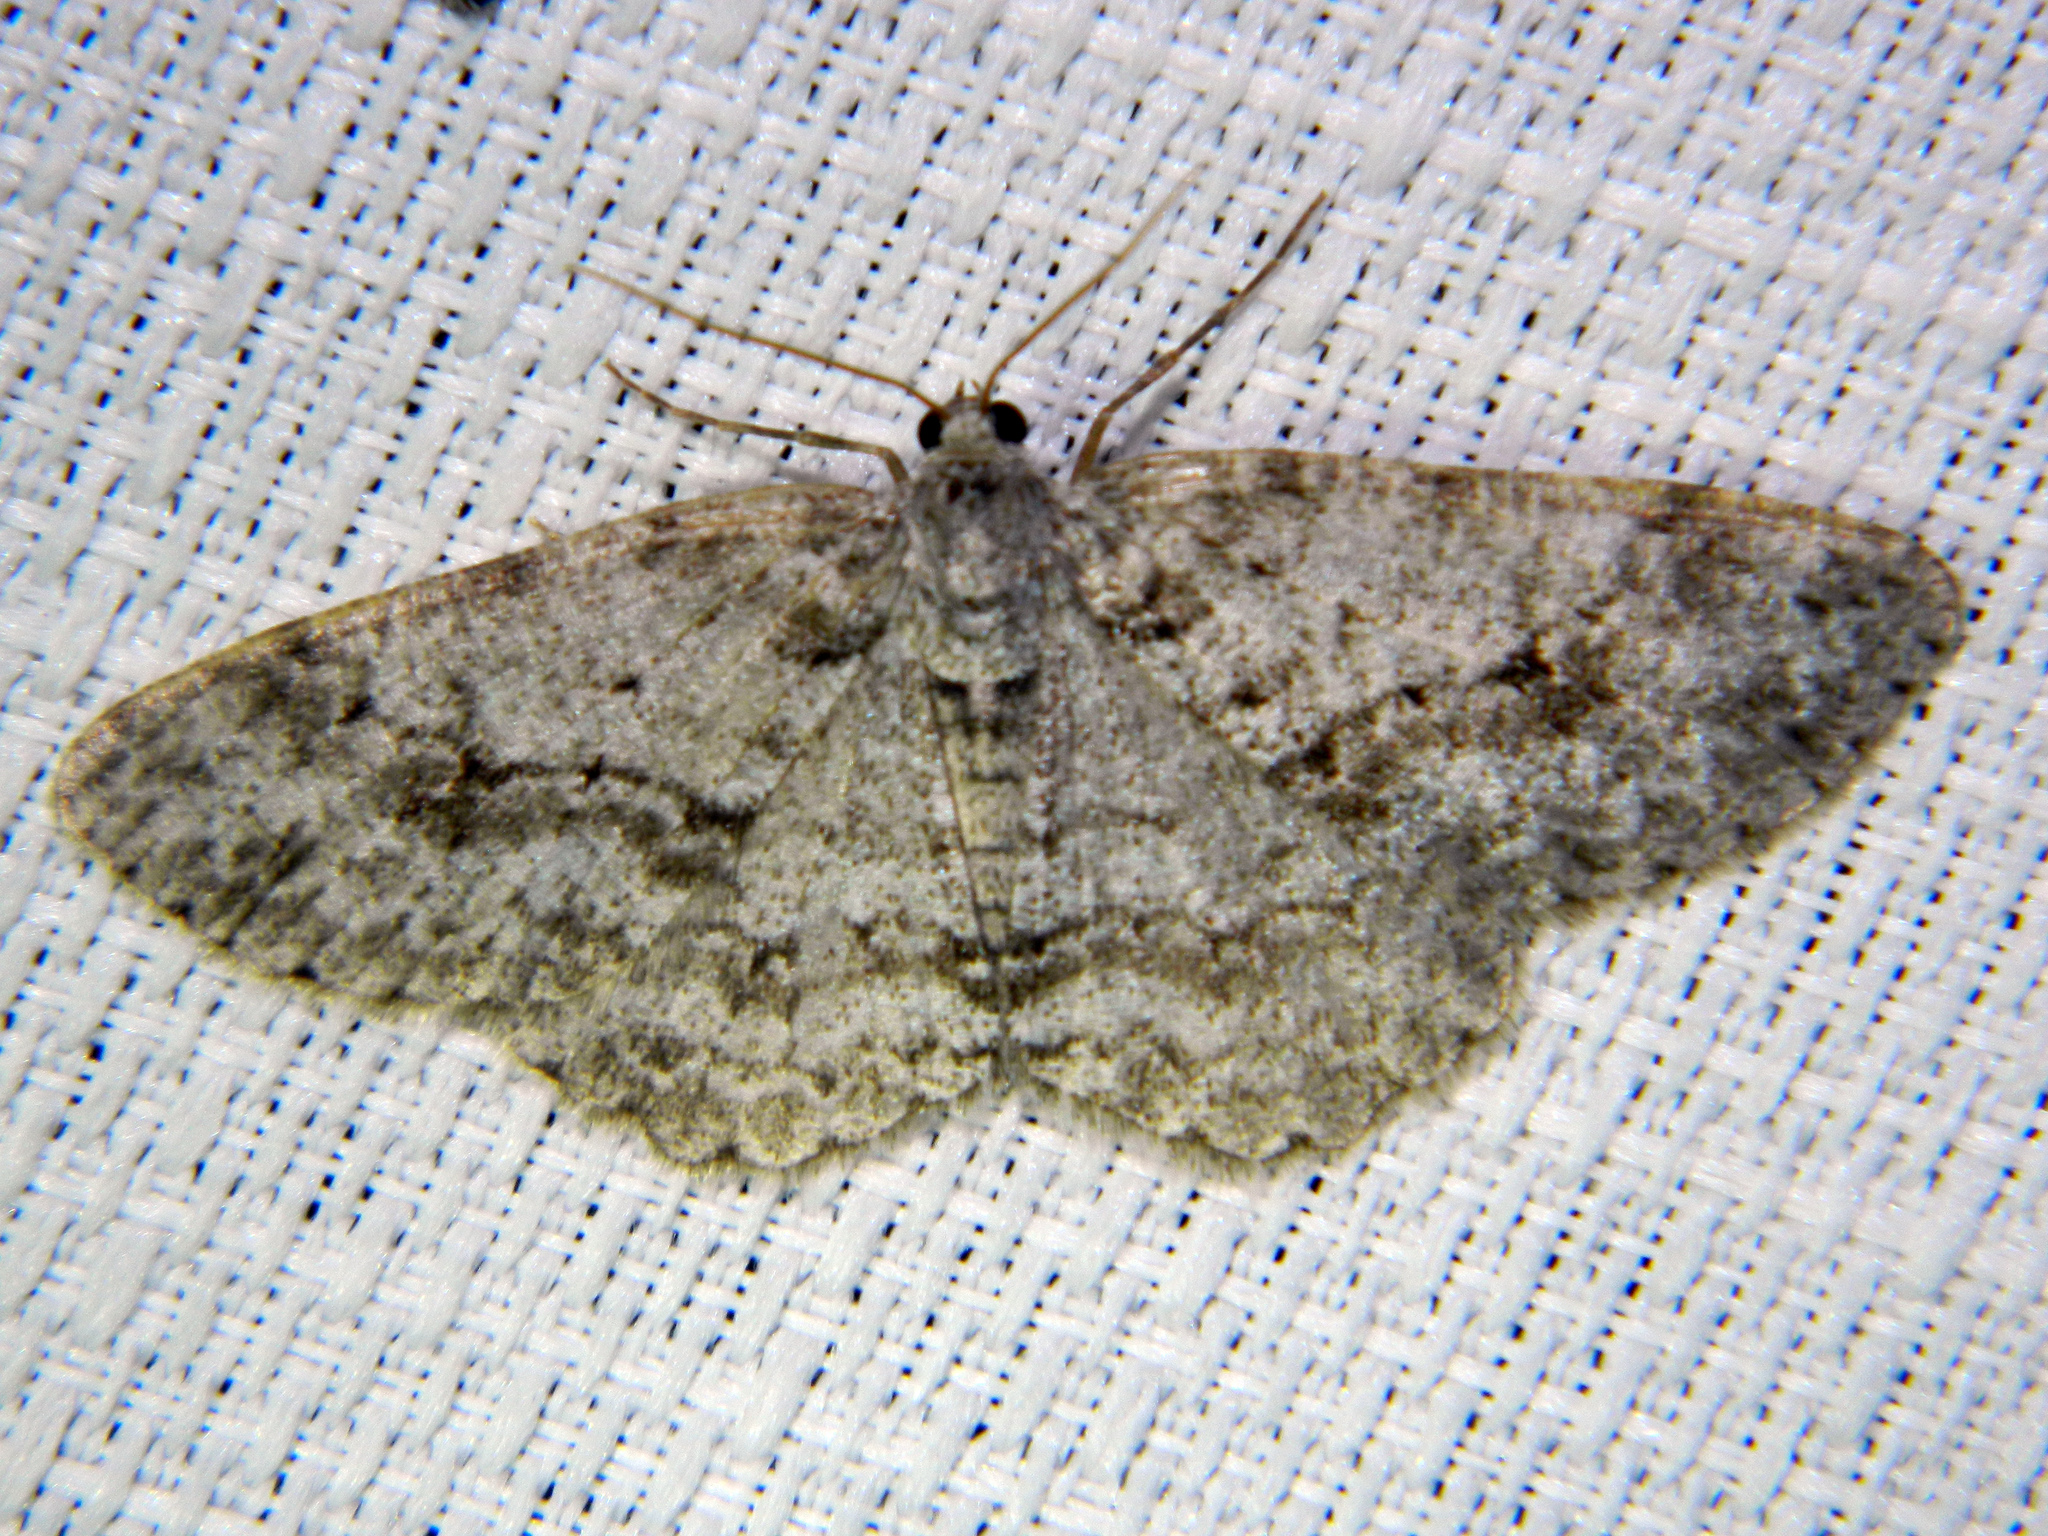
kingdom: Animalia
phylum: Arthropoda
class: Insecta
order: Lepidoptera
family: Geometridae
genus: Ectropis
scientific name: Ectropis crepuscularia
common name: Engrailed
